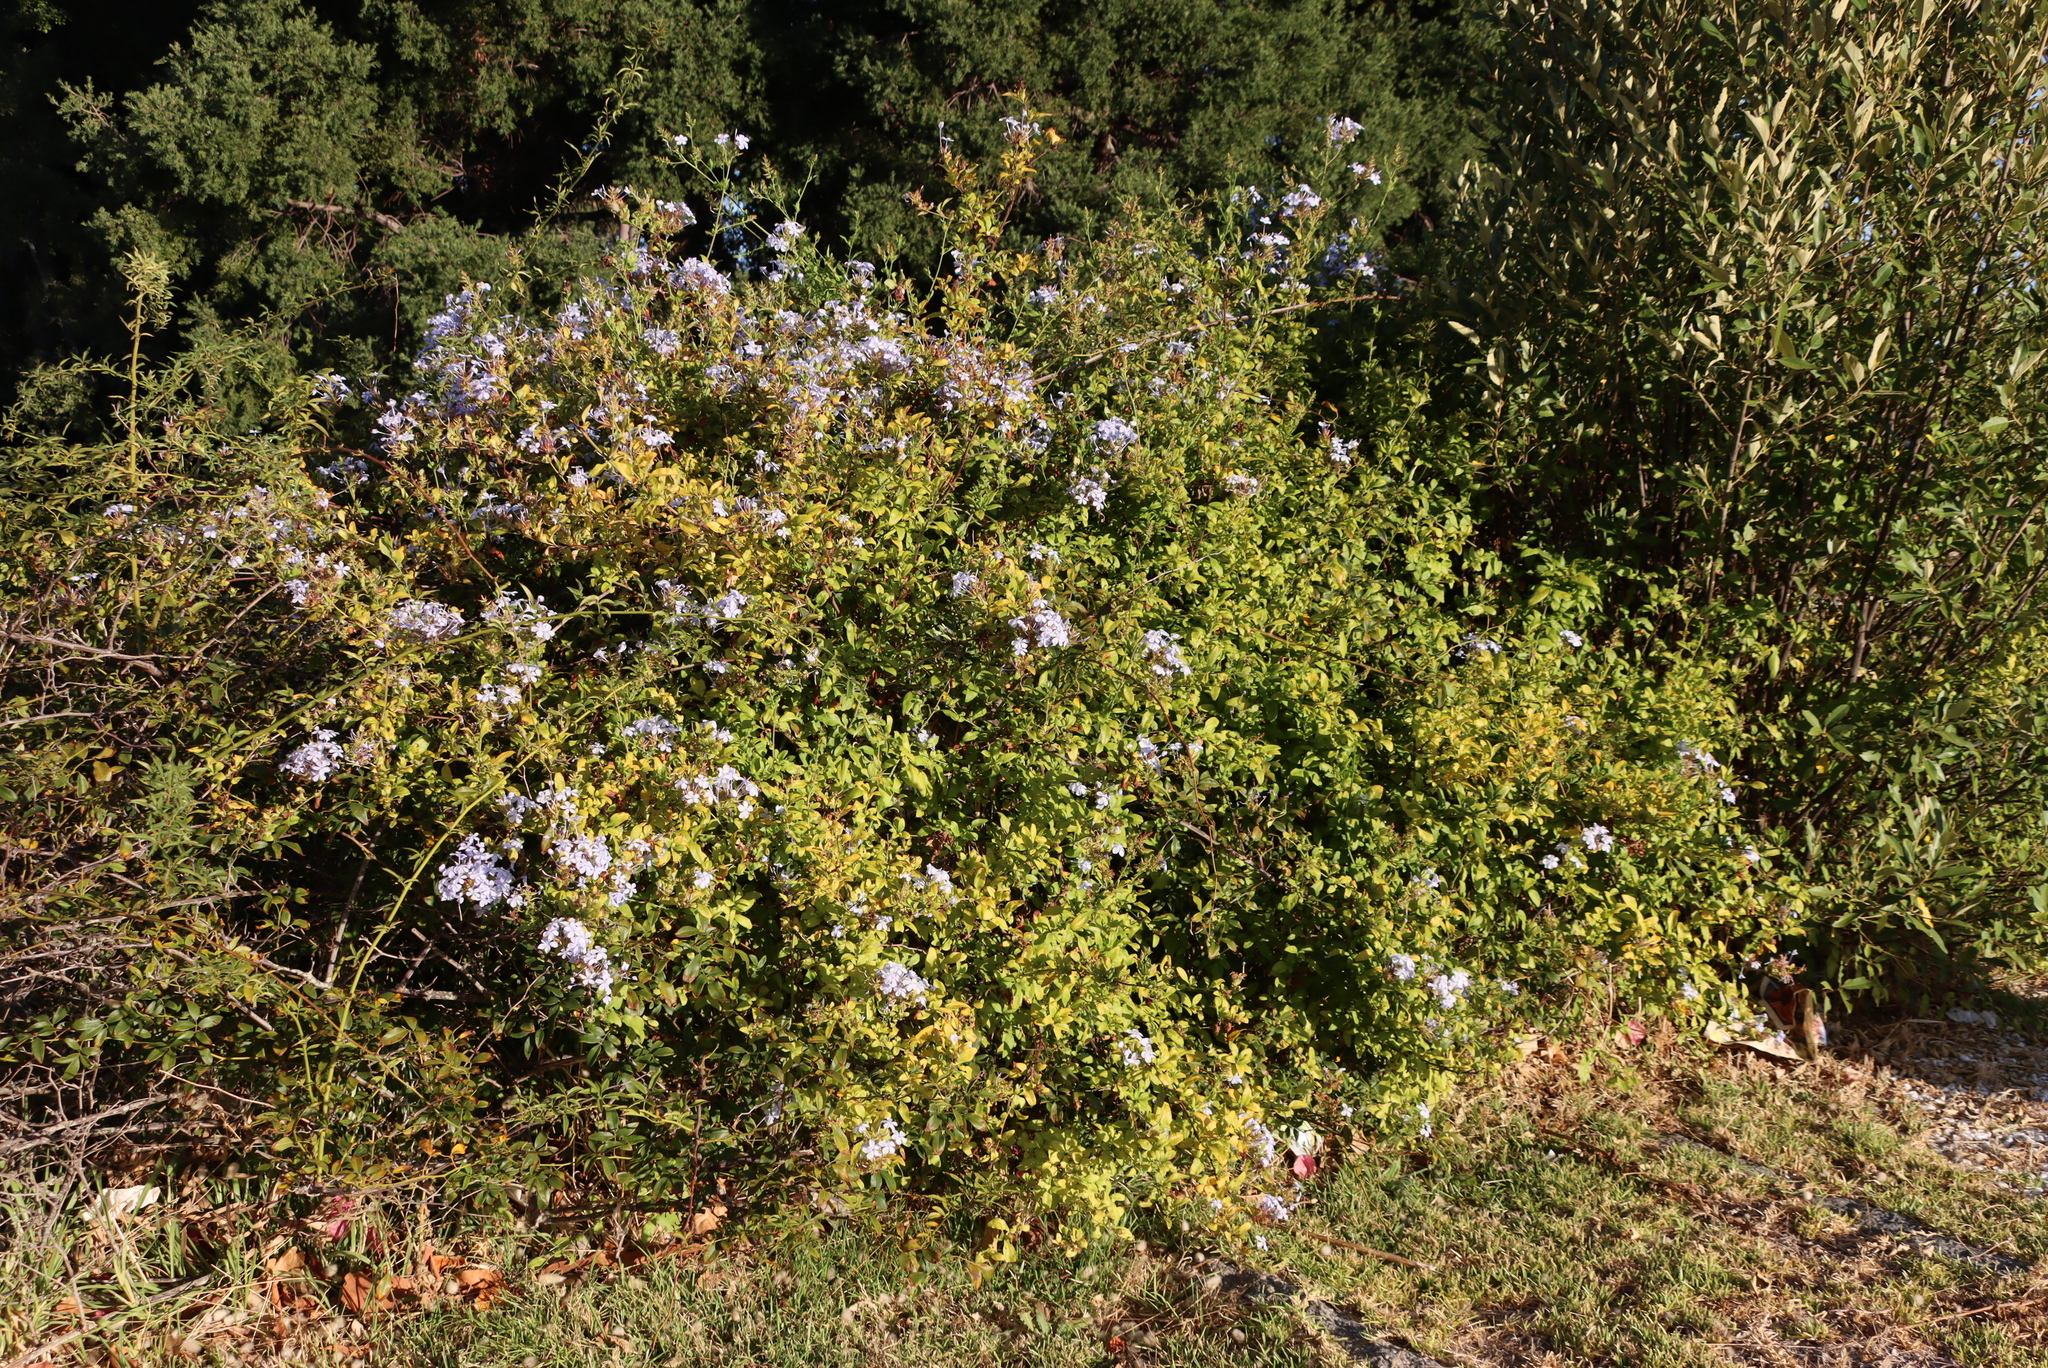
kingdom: Plantae
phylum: Tracheophyta
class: Magnoliopsida
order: Caryophyllales
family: Plumbaginaceae
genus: Plumbago
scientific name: Plumbago auriculata
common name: Cape leadwort
